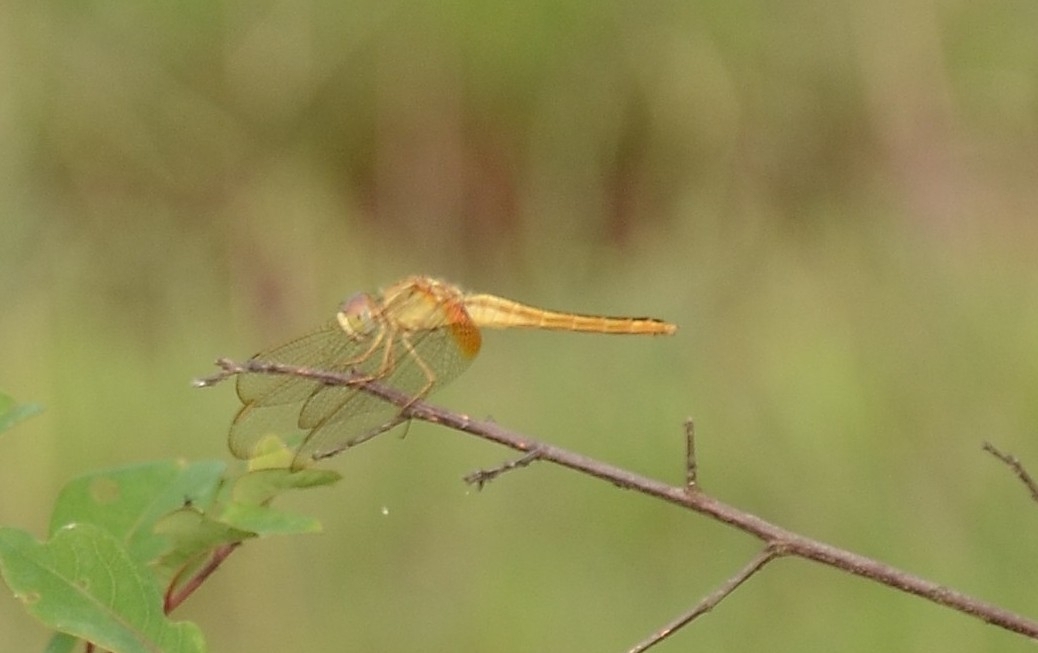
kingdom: Animalia
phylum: Arthropoda
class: Insecta
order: Odonata
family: Libellulidae
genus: Crocothemis
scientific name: Crocothemis servilia
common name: Scarlet skimmer
